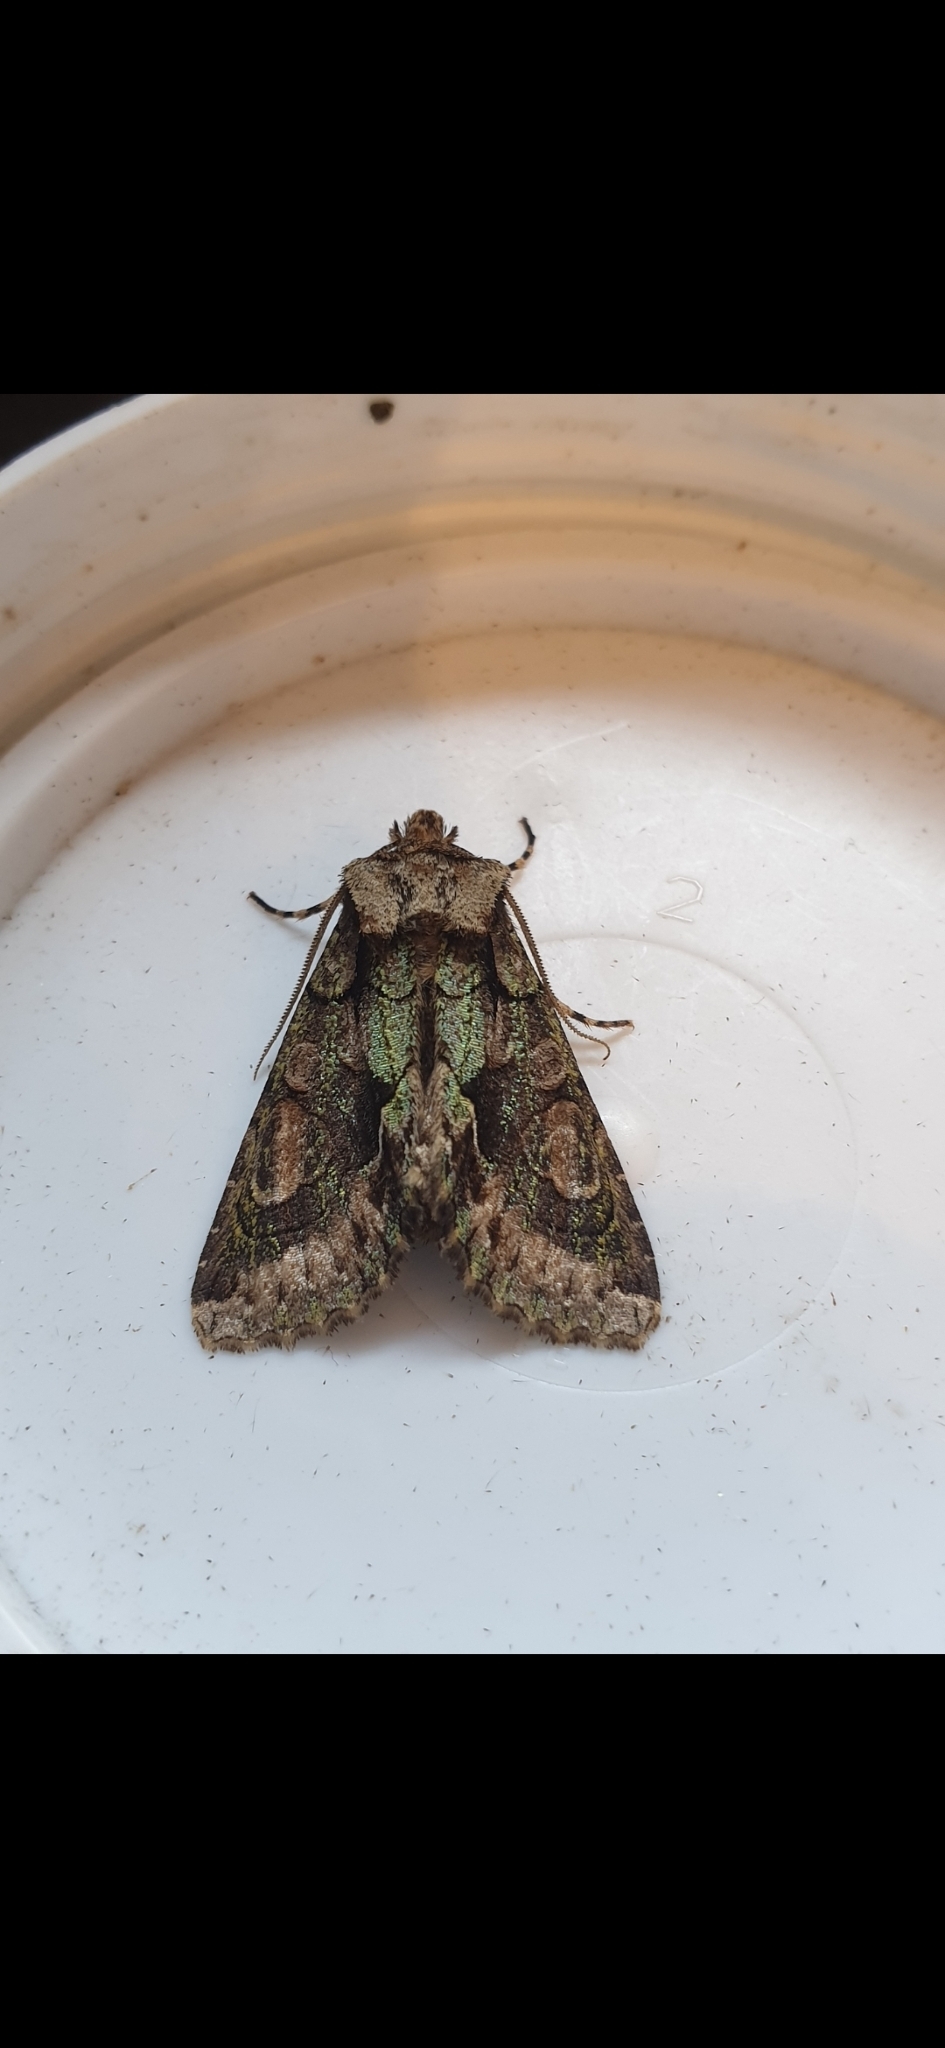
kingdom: Animalia
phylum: Arthropoda
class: Insecta
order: Lepidoptera
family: Noctuidae
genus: Allophyes
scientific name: Allophyes oxyacanthae
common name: Green-brindled crescent
